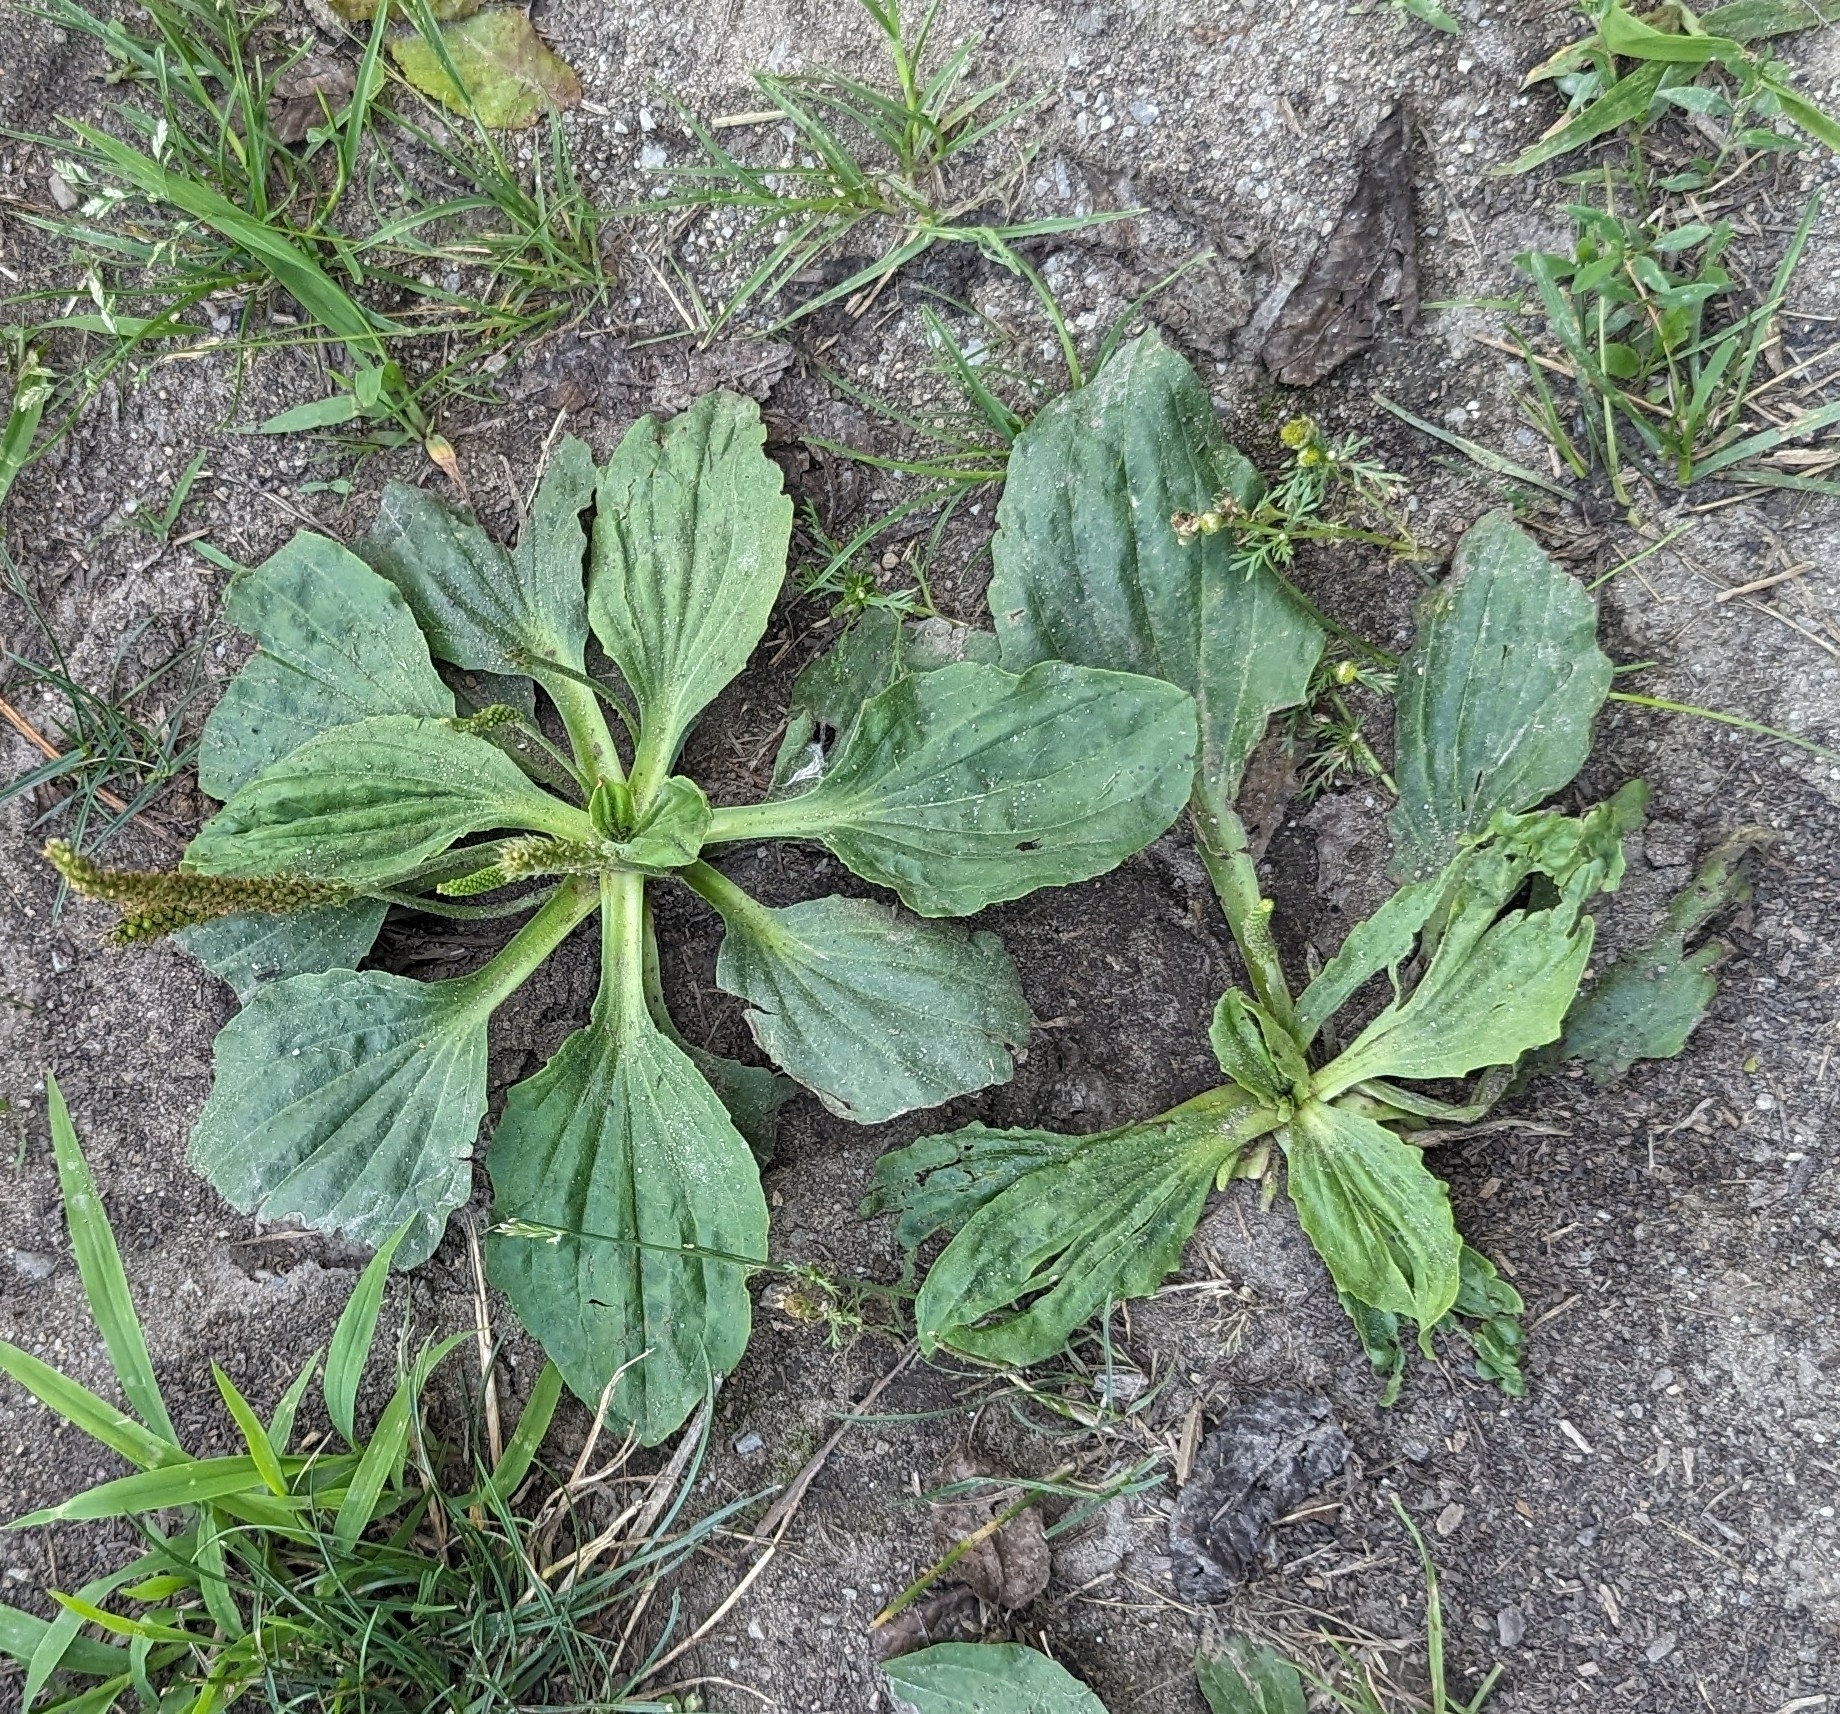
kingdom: Plantae
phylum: Tracheophyta
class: Magnoliopsida
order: Lamiales
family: Plantaginaceae
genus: Plantago
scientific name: Plantago major
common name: Common plantain
